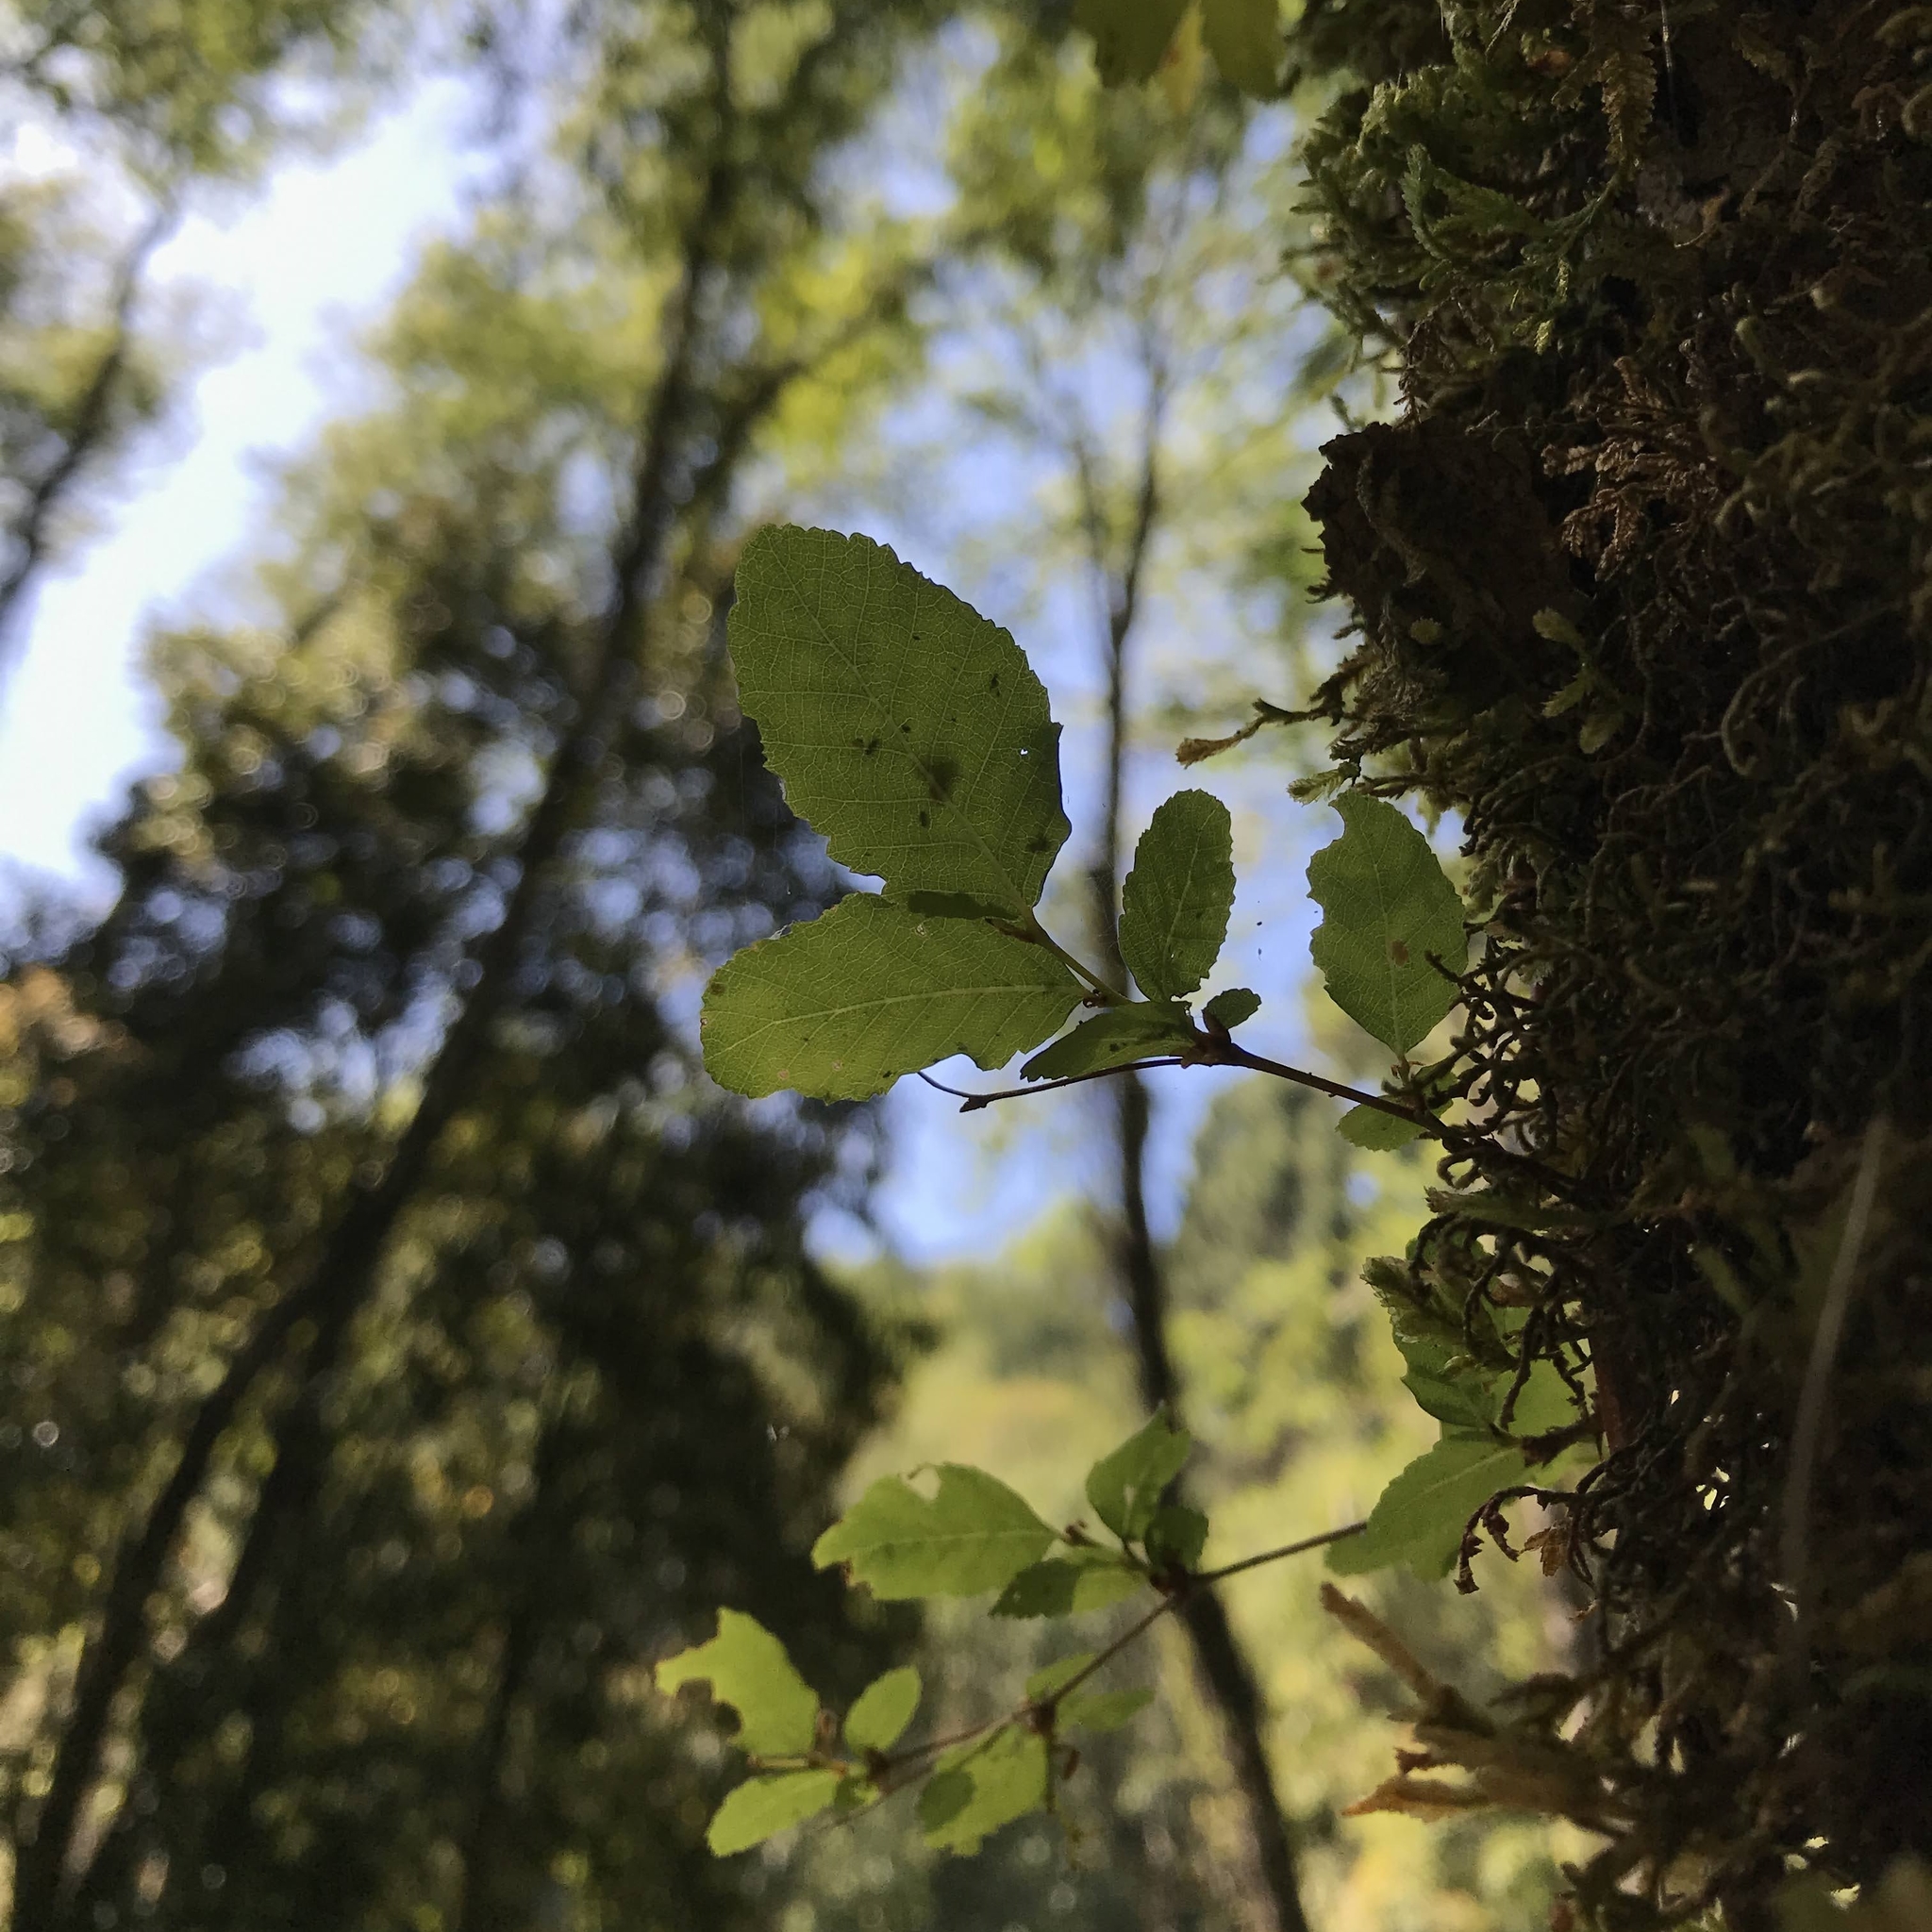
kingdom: Plantae
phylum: Tracheophyta
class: Magnoliopsida
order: Fagales
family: Nothofagaceae
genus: Nothofagus
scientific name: Nothofagus obliqua
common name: Roble beech
